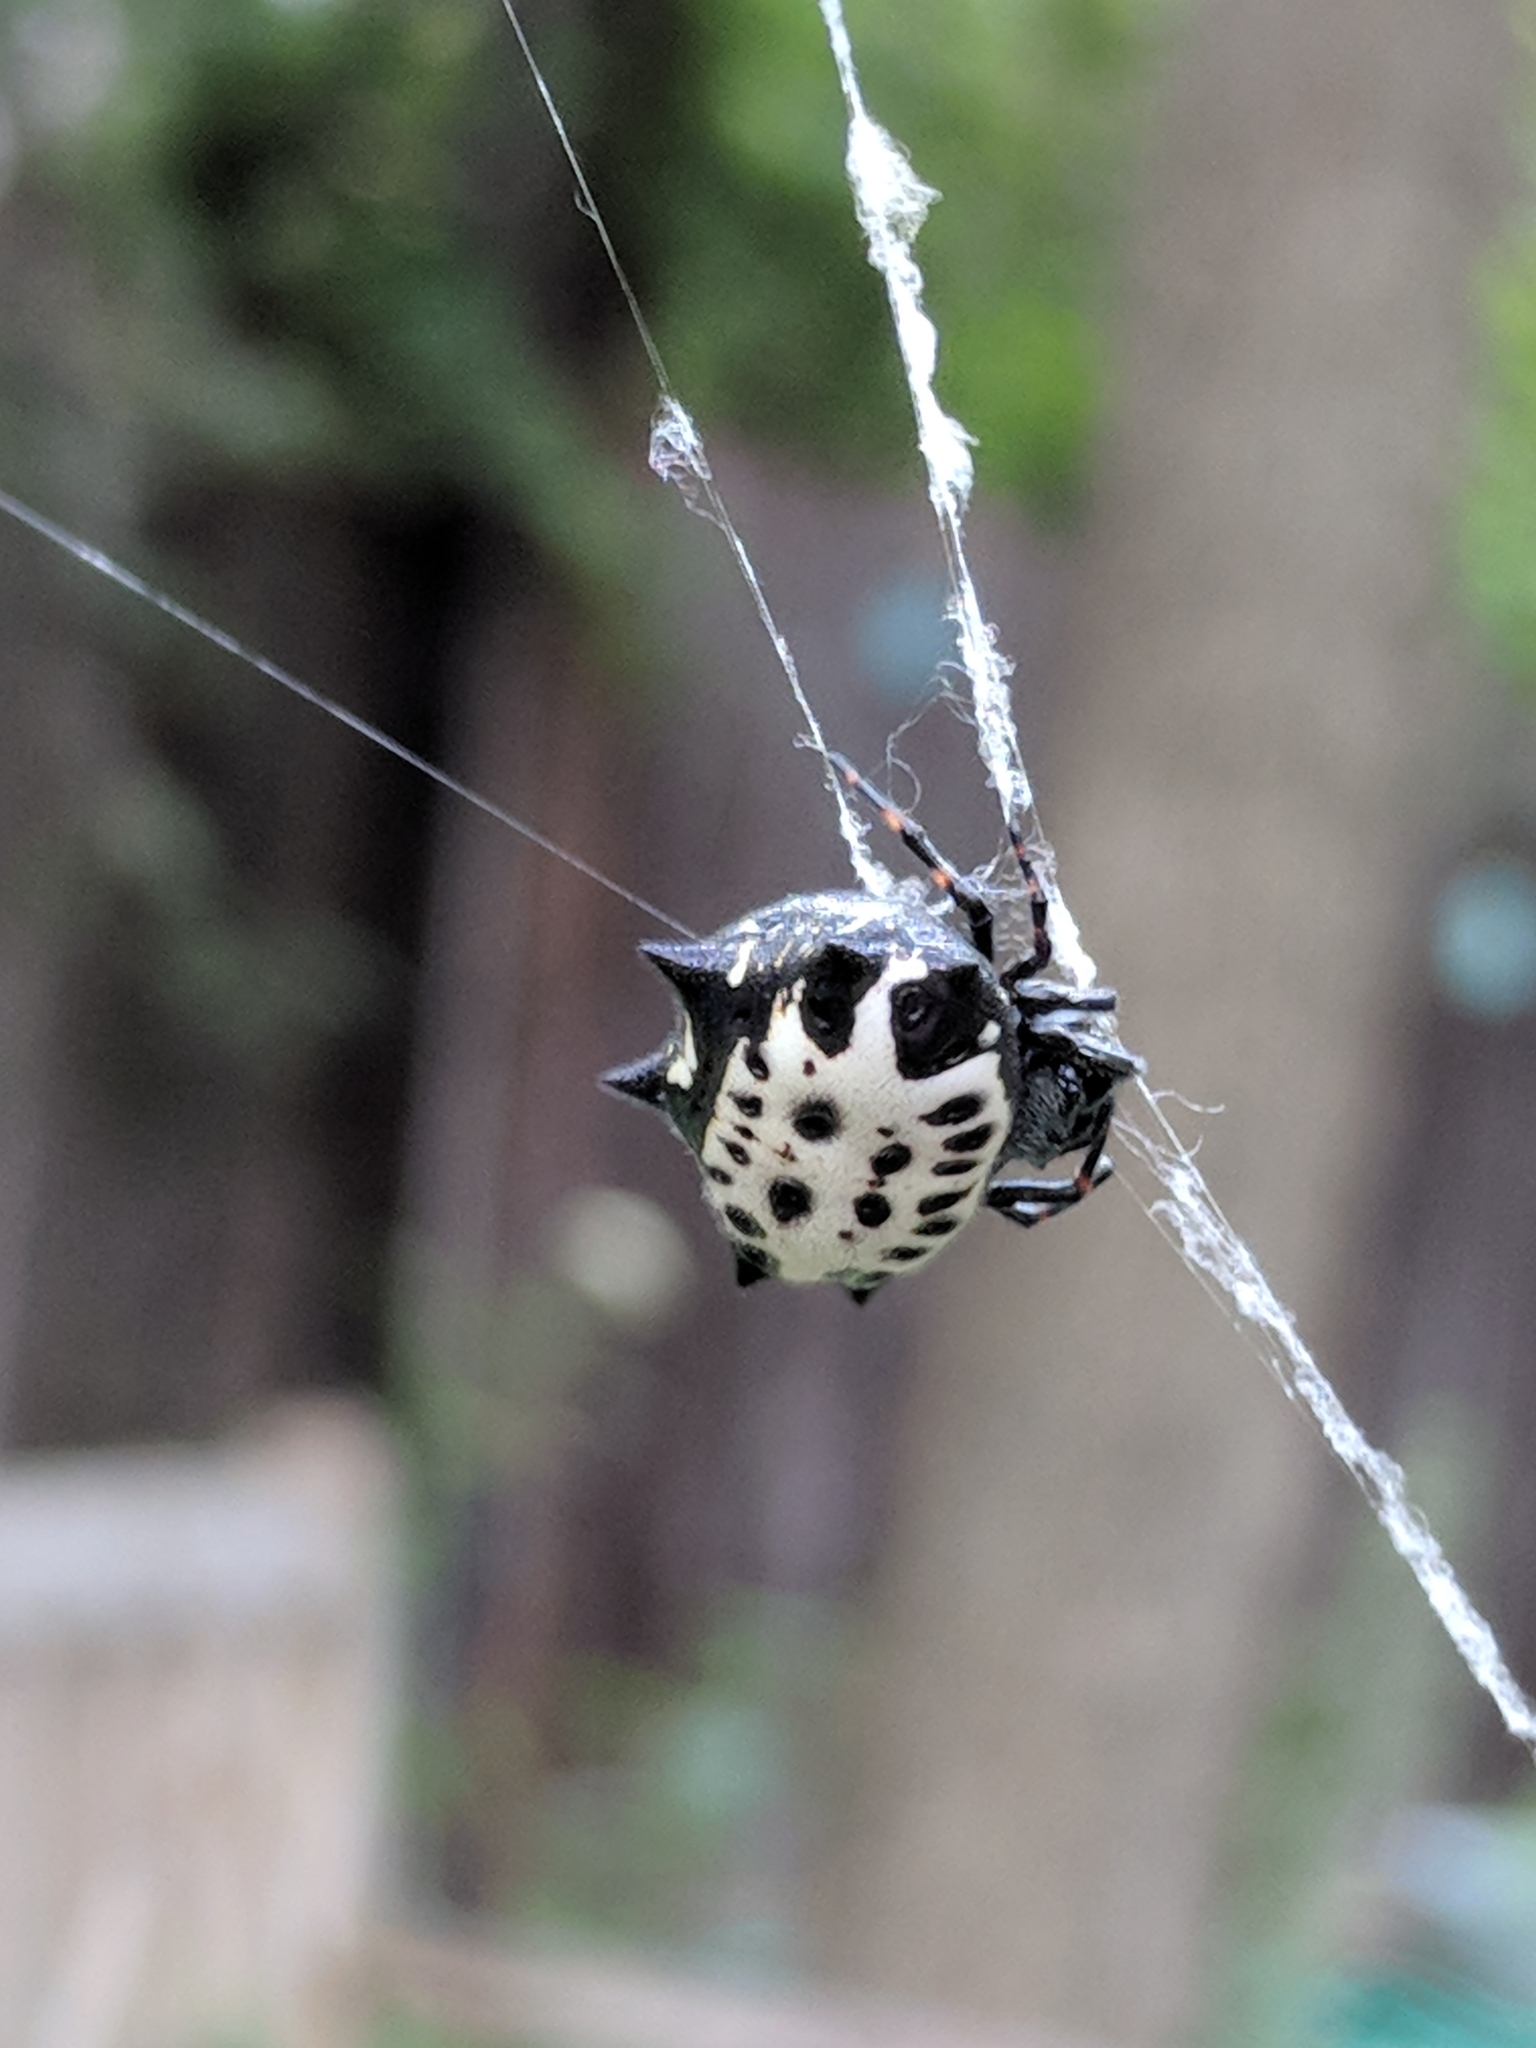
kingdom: Animalia
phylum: Arthropoda
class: Arachnida
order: Araneae
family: Araneidae
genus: Gasteracantha
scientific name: Gasteracantha cancriformis
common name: Orb weavers
